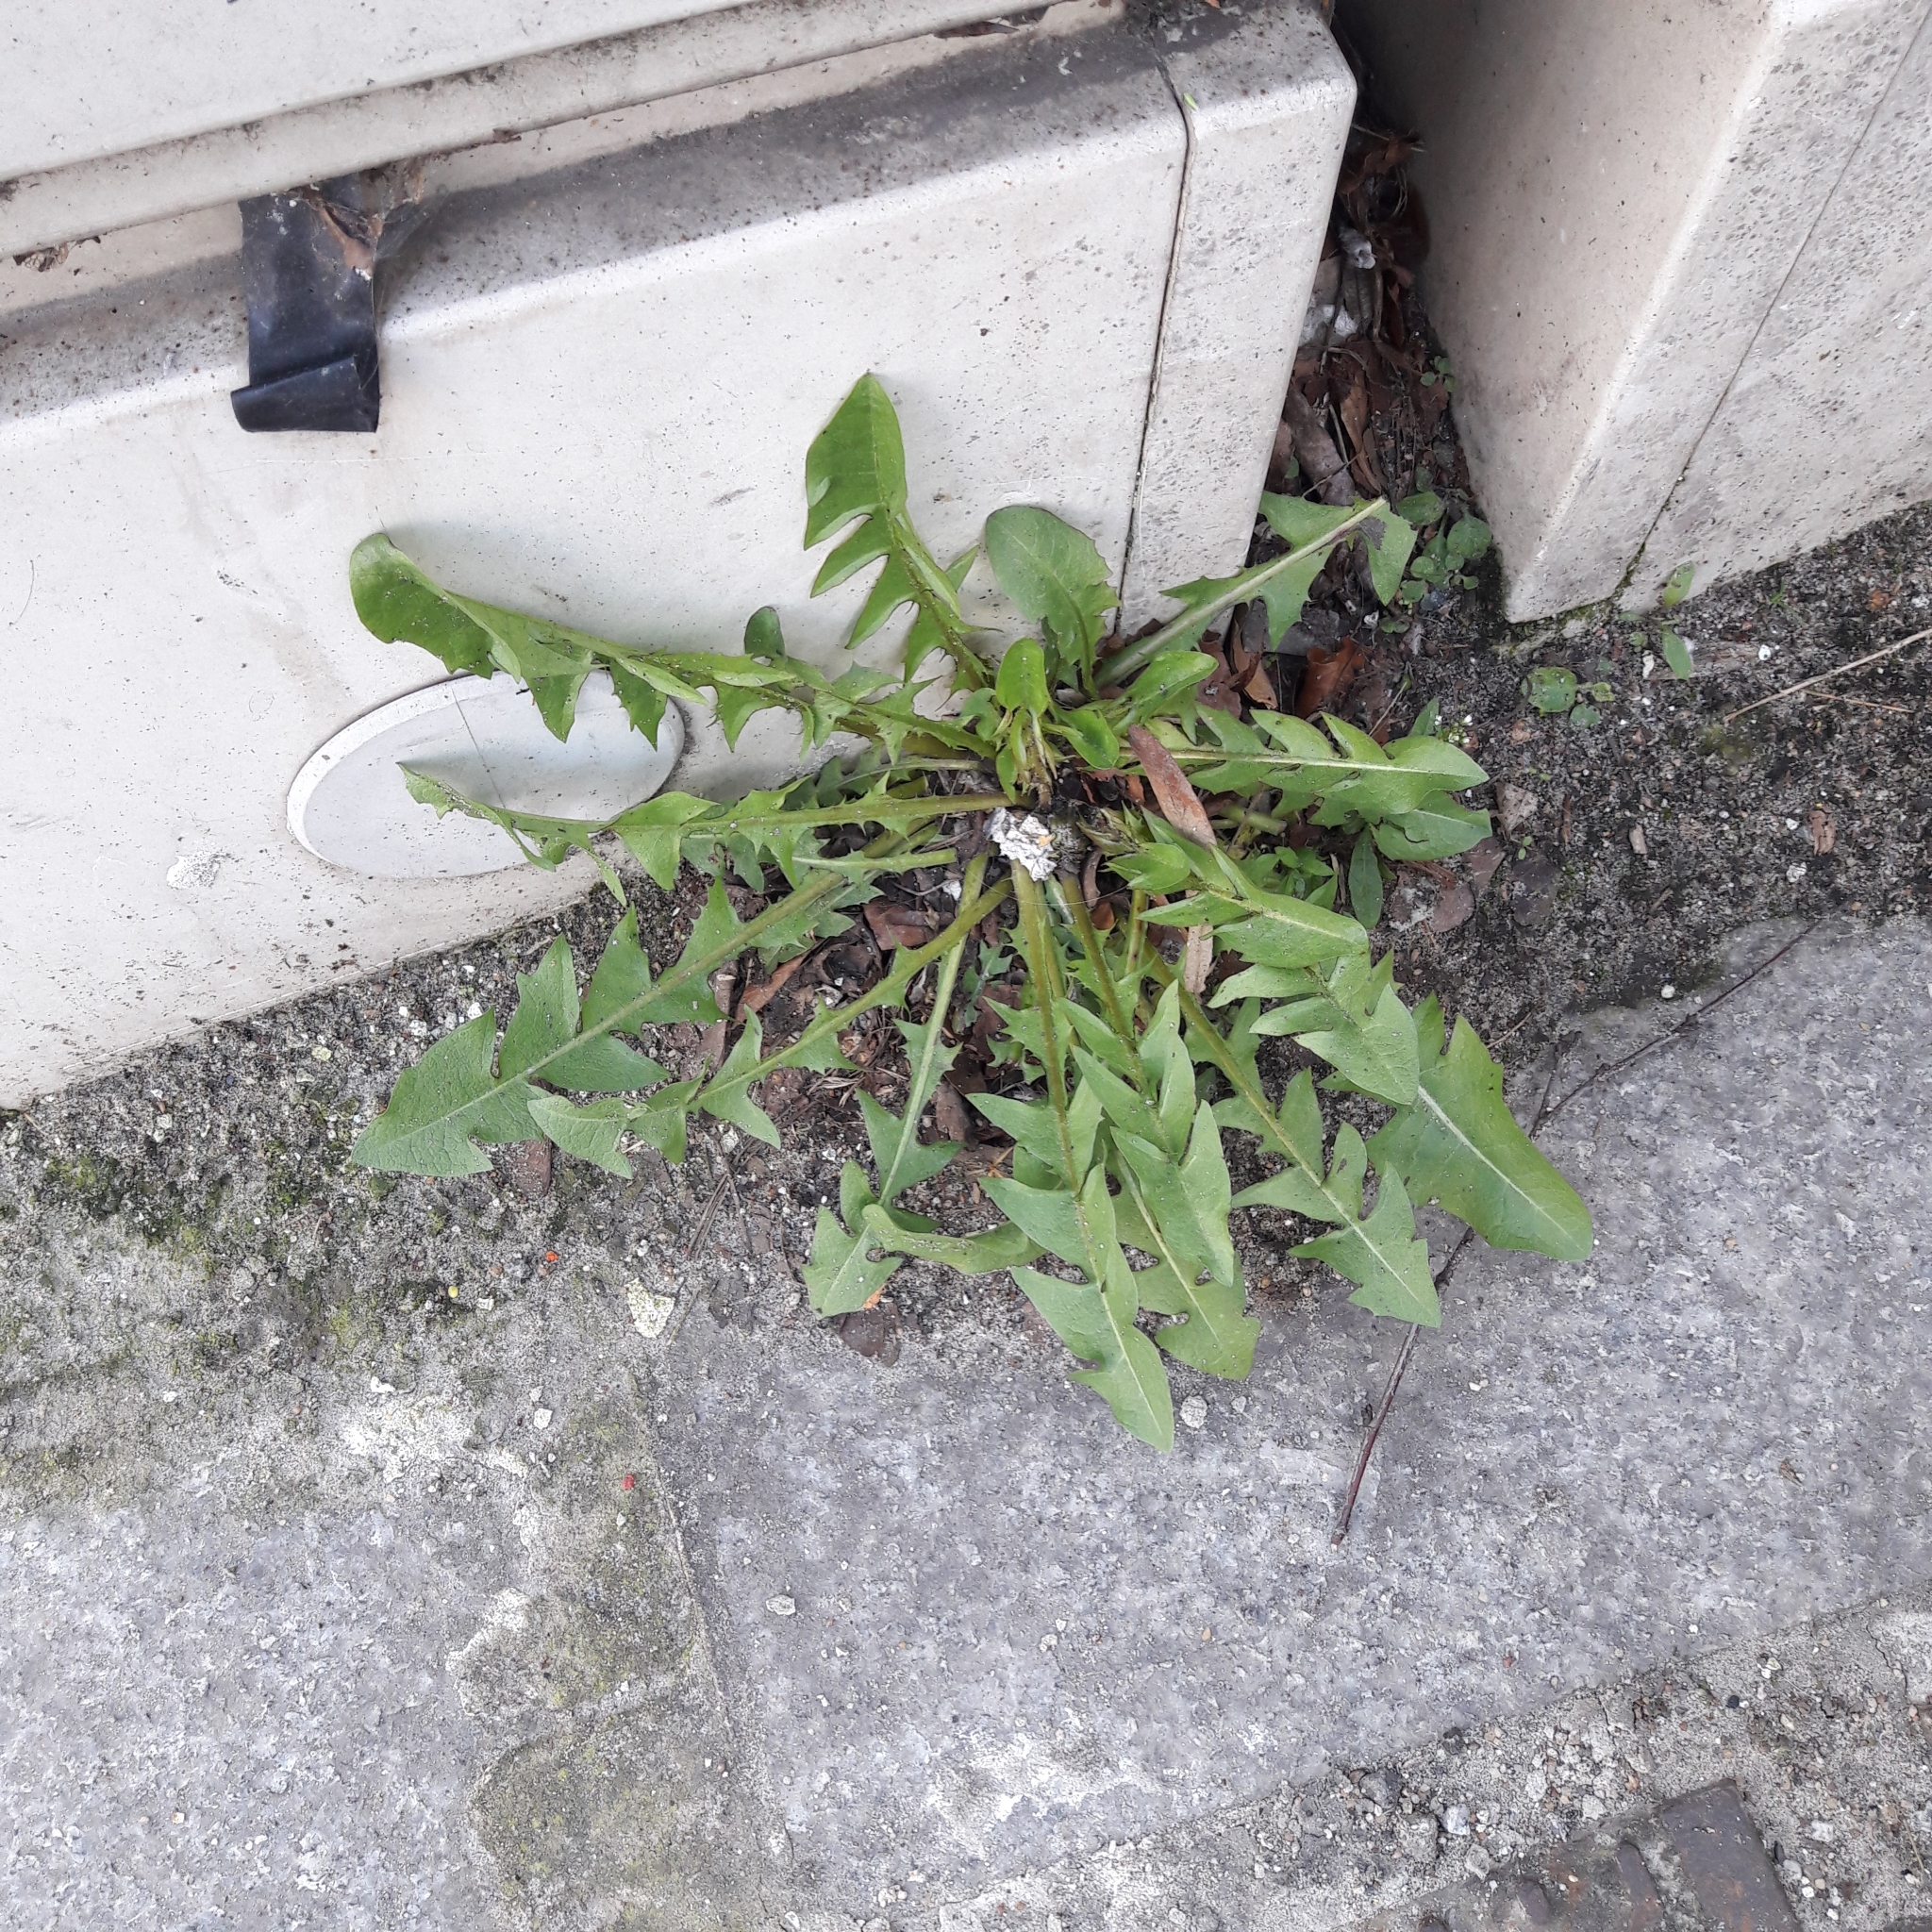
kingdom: Plantae
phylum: Tracheophyta
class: Magnoliopsida
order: Asterales
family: Asteraceae
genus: Taraxacum
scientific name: Taraxacum officinale
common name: Common dandelion
